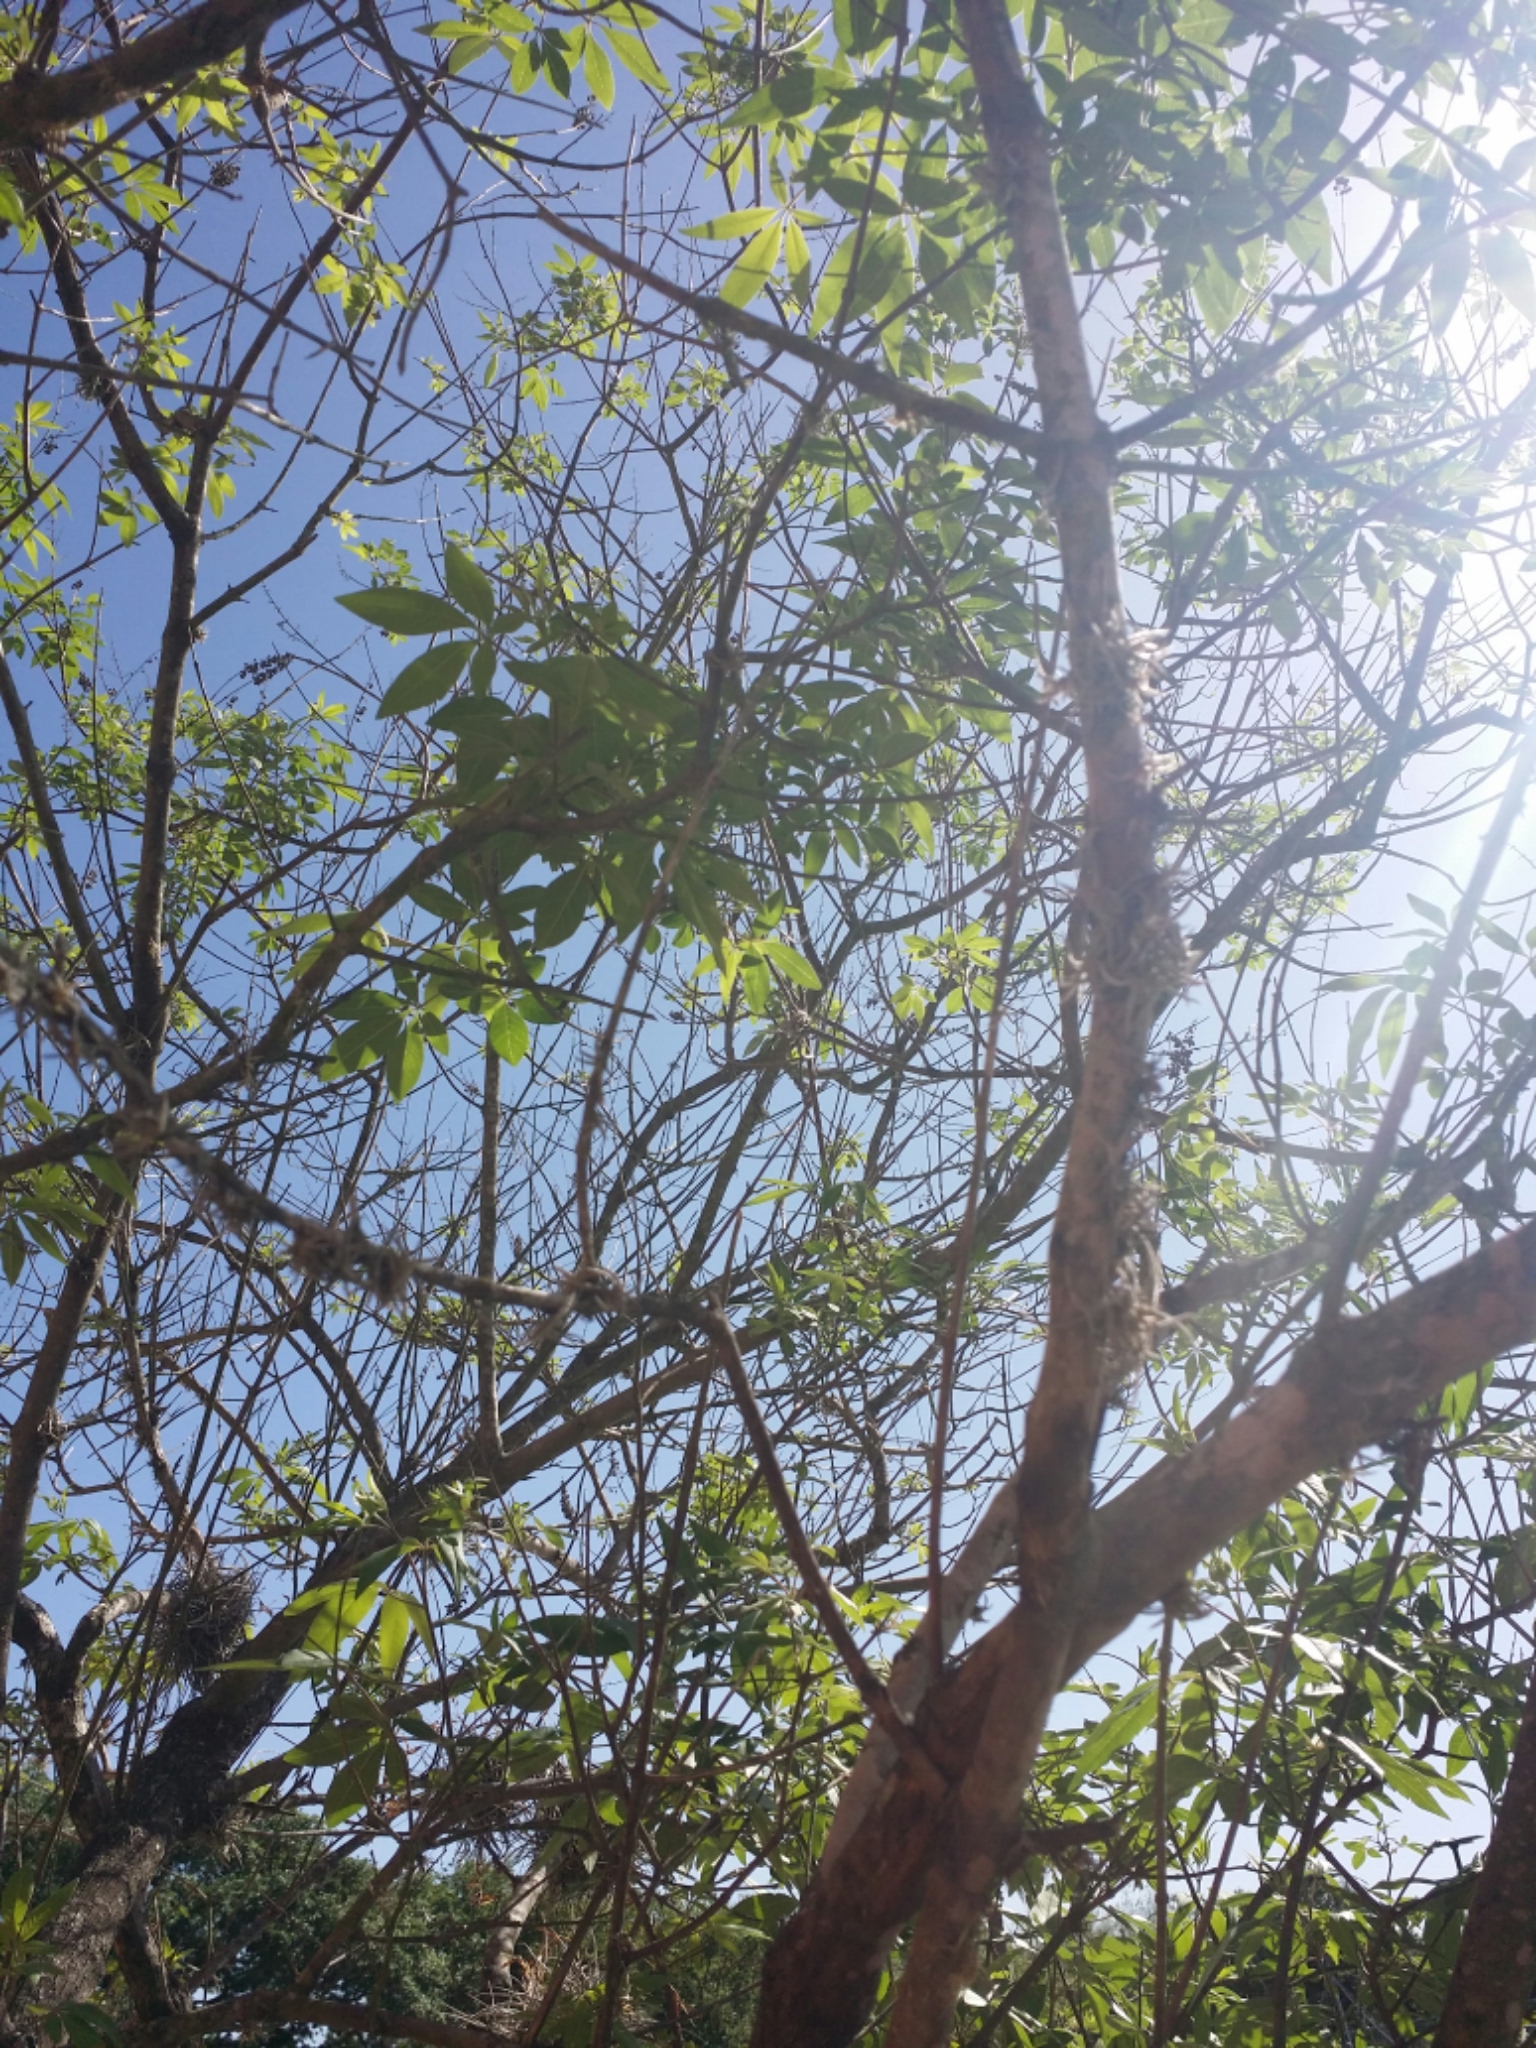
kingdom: Plantae
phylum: Tracheophyta
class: Magnoliopsida
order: Lamiales
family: Lamiaceae
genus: Vitex
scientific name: Vitex agnus-castus
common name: Chasteberry
